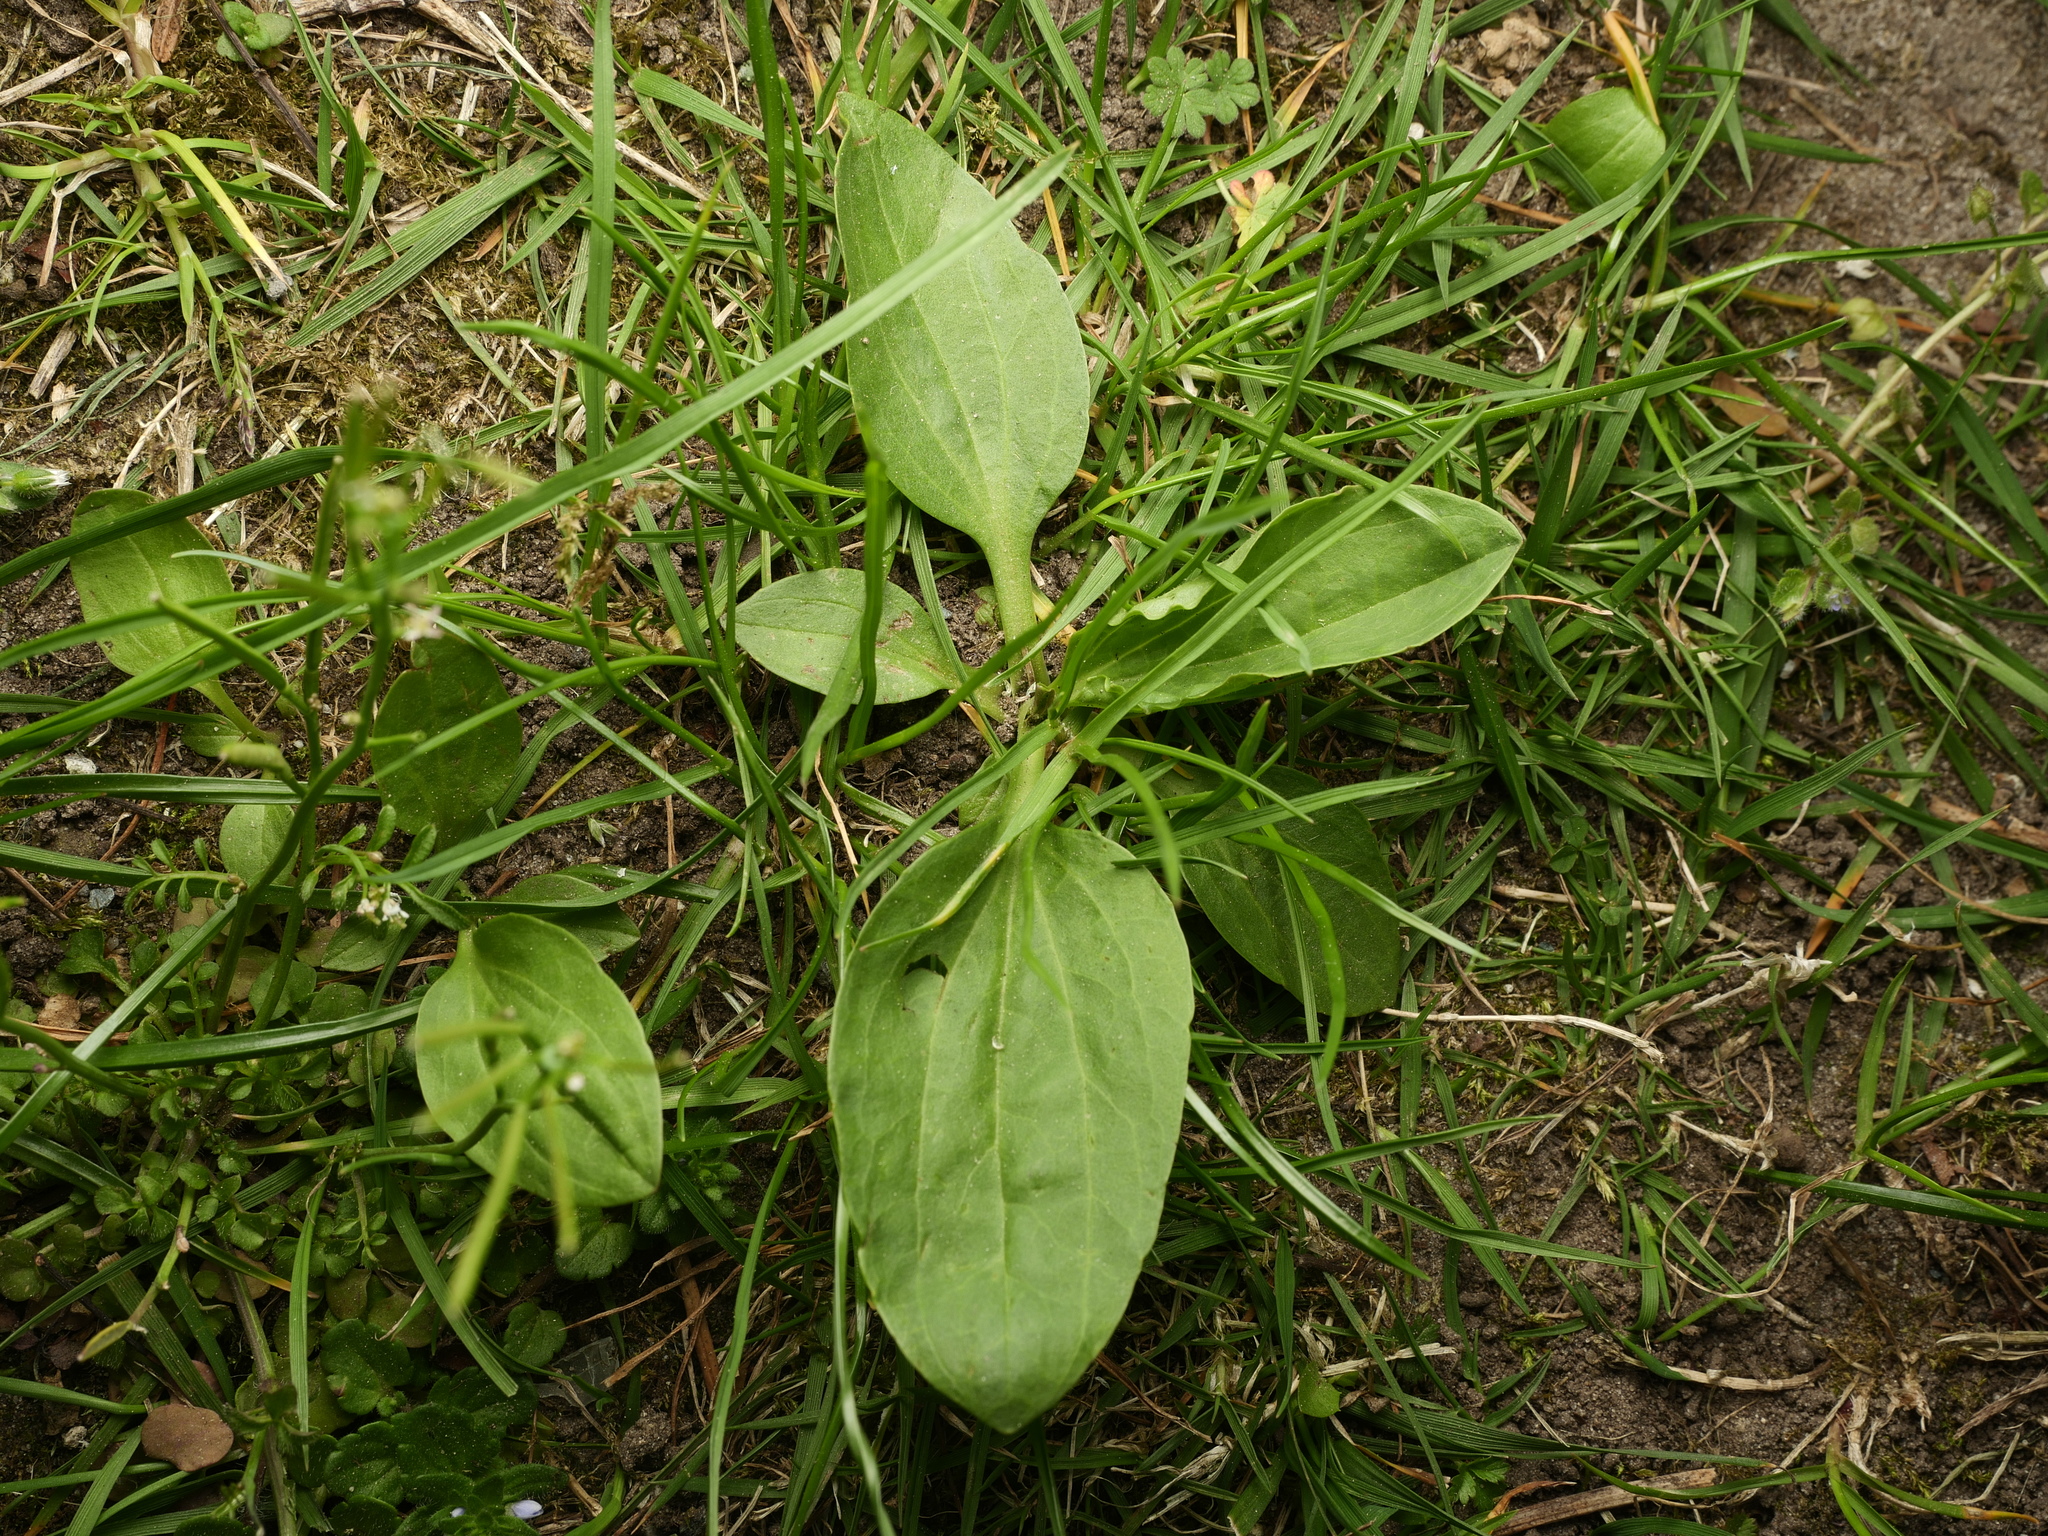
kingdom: Plantae
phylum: Tracheophyta
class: Magnoliopsida
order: Lamiales
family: Plantaginaceae
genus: Plantago
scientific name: Plantago major
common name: Common plantain
